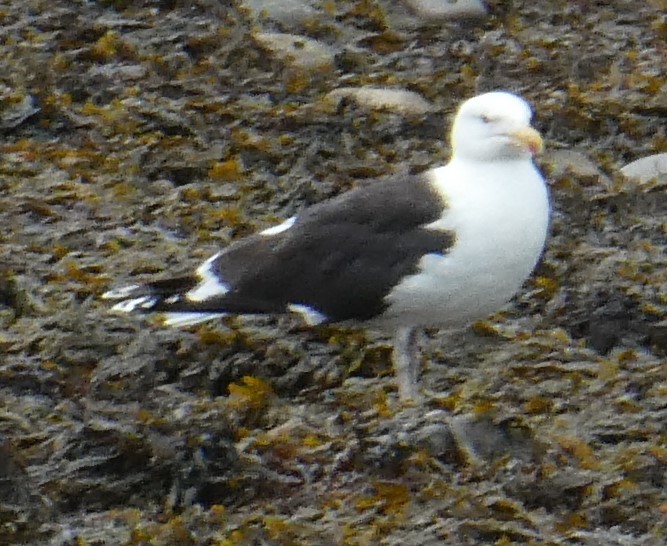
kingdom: Animalia
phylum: Chordata
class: Aves
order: Charadriiformes
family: Laridae
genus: Larus
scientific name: Larus marinus
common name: Great black-backed gull
